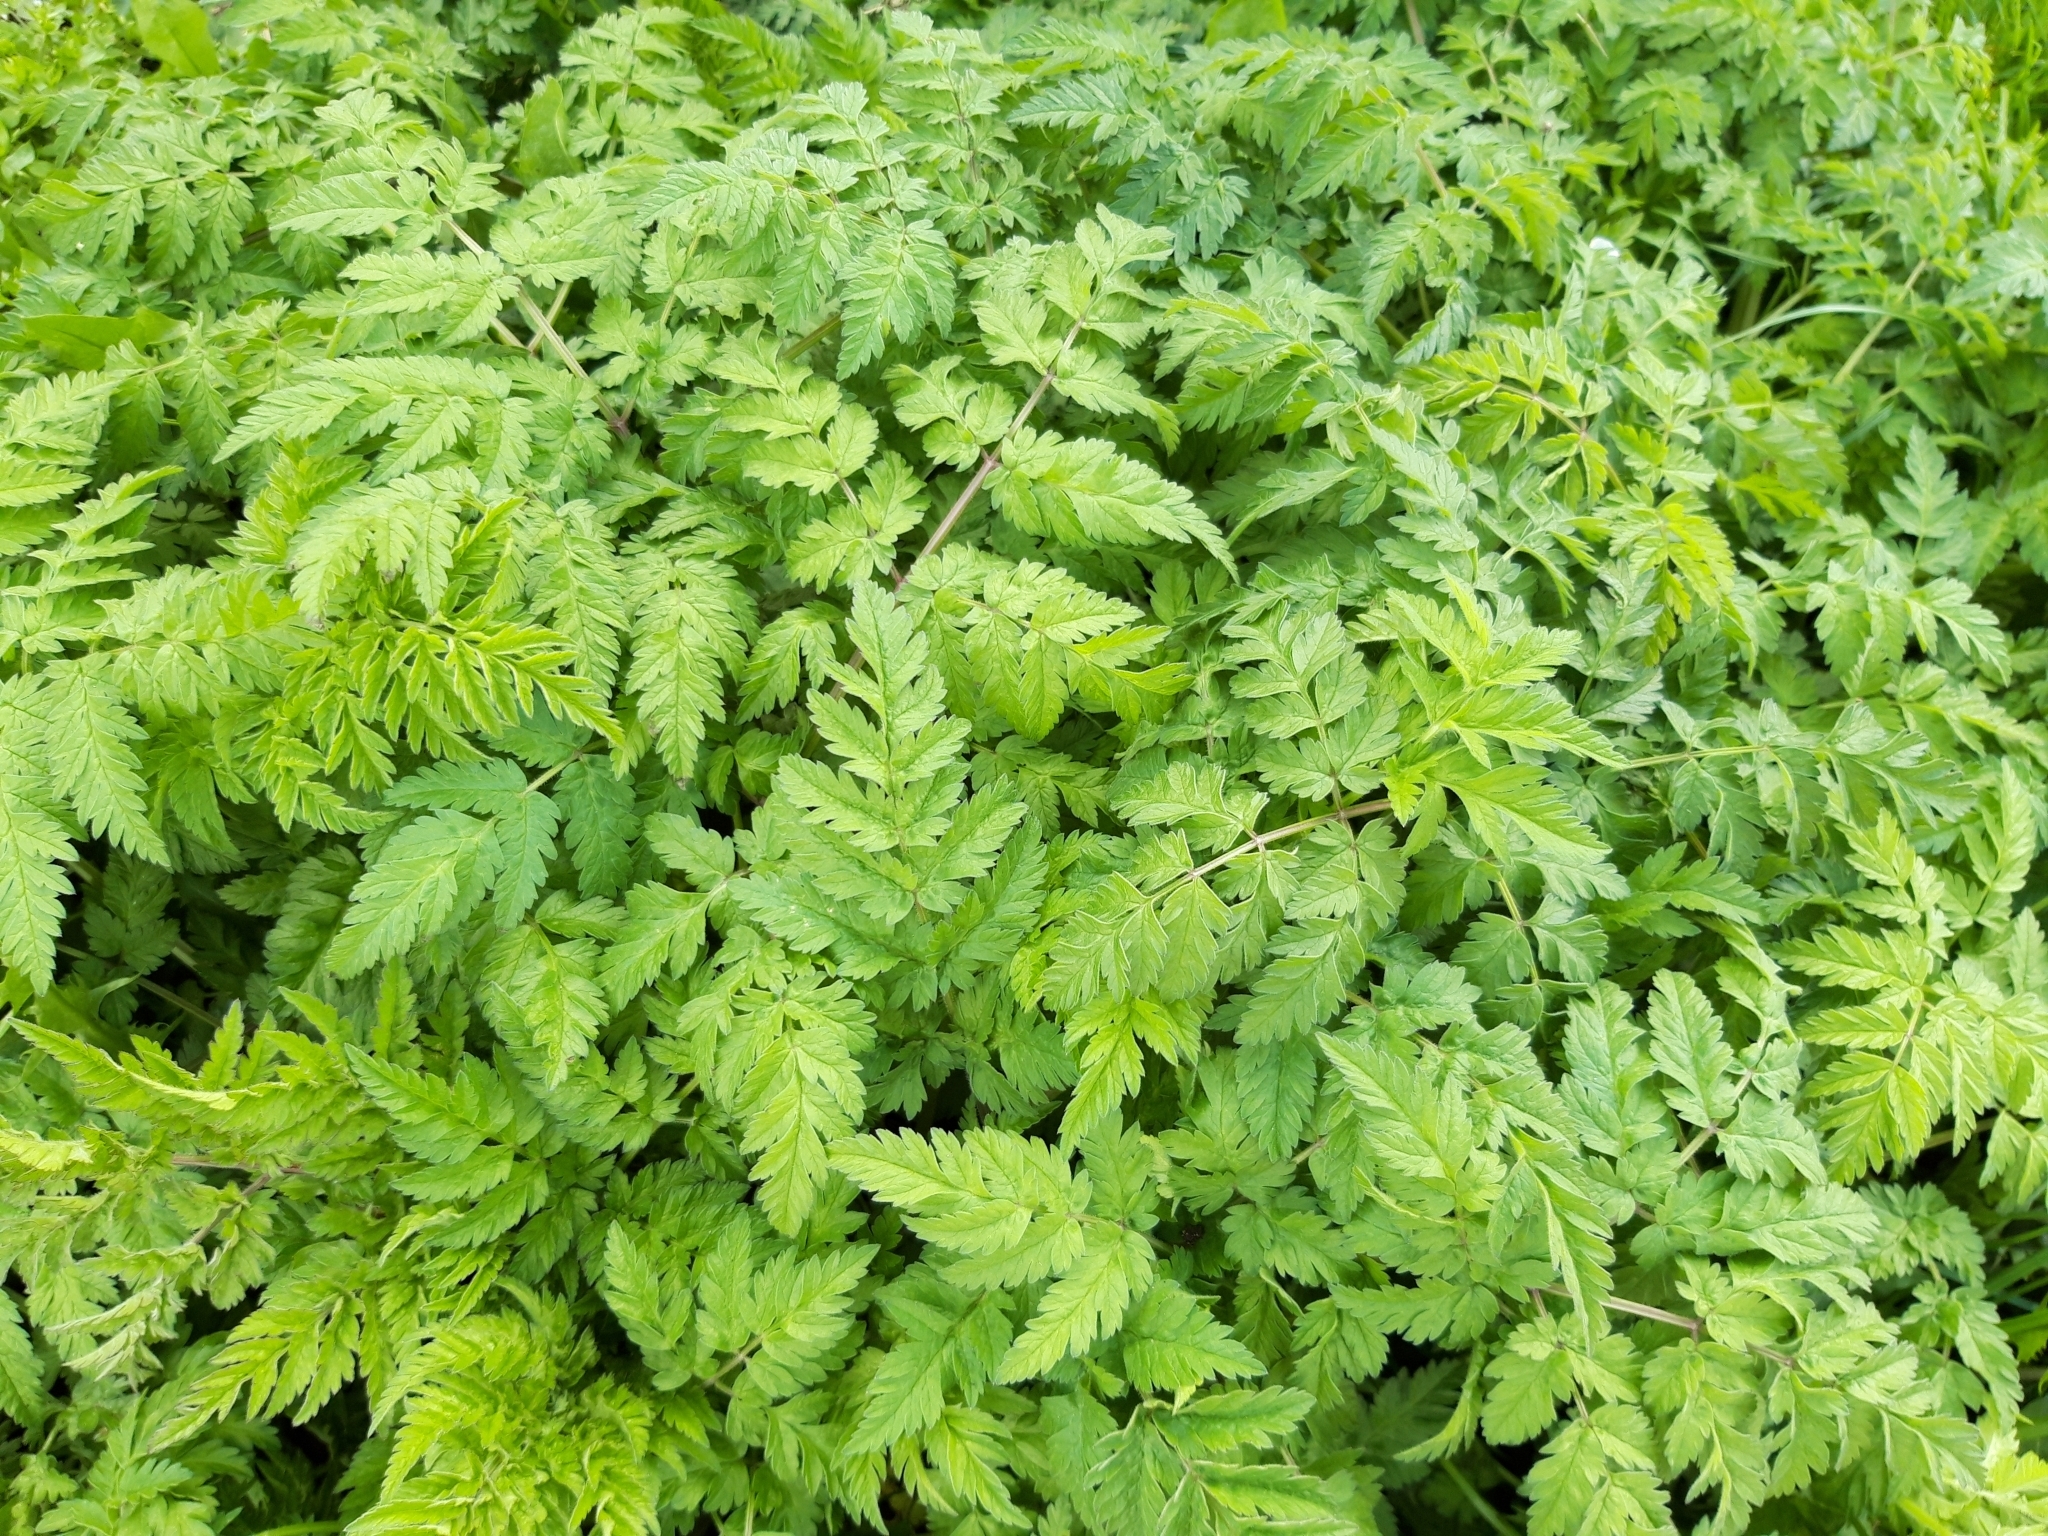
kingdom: Plantae
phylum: Tracheophyta
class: Magnoliopsida
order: Apiales
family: Apiaceae
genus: Anthriscus
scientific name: Anthriscus sylvestris
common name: Cow parsley
